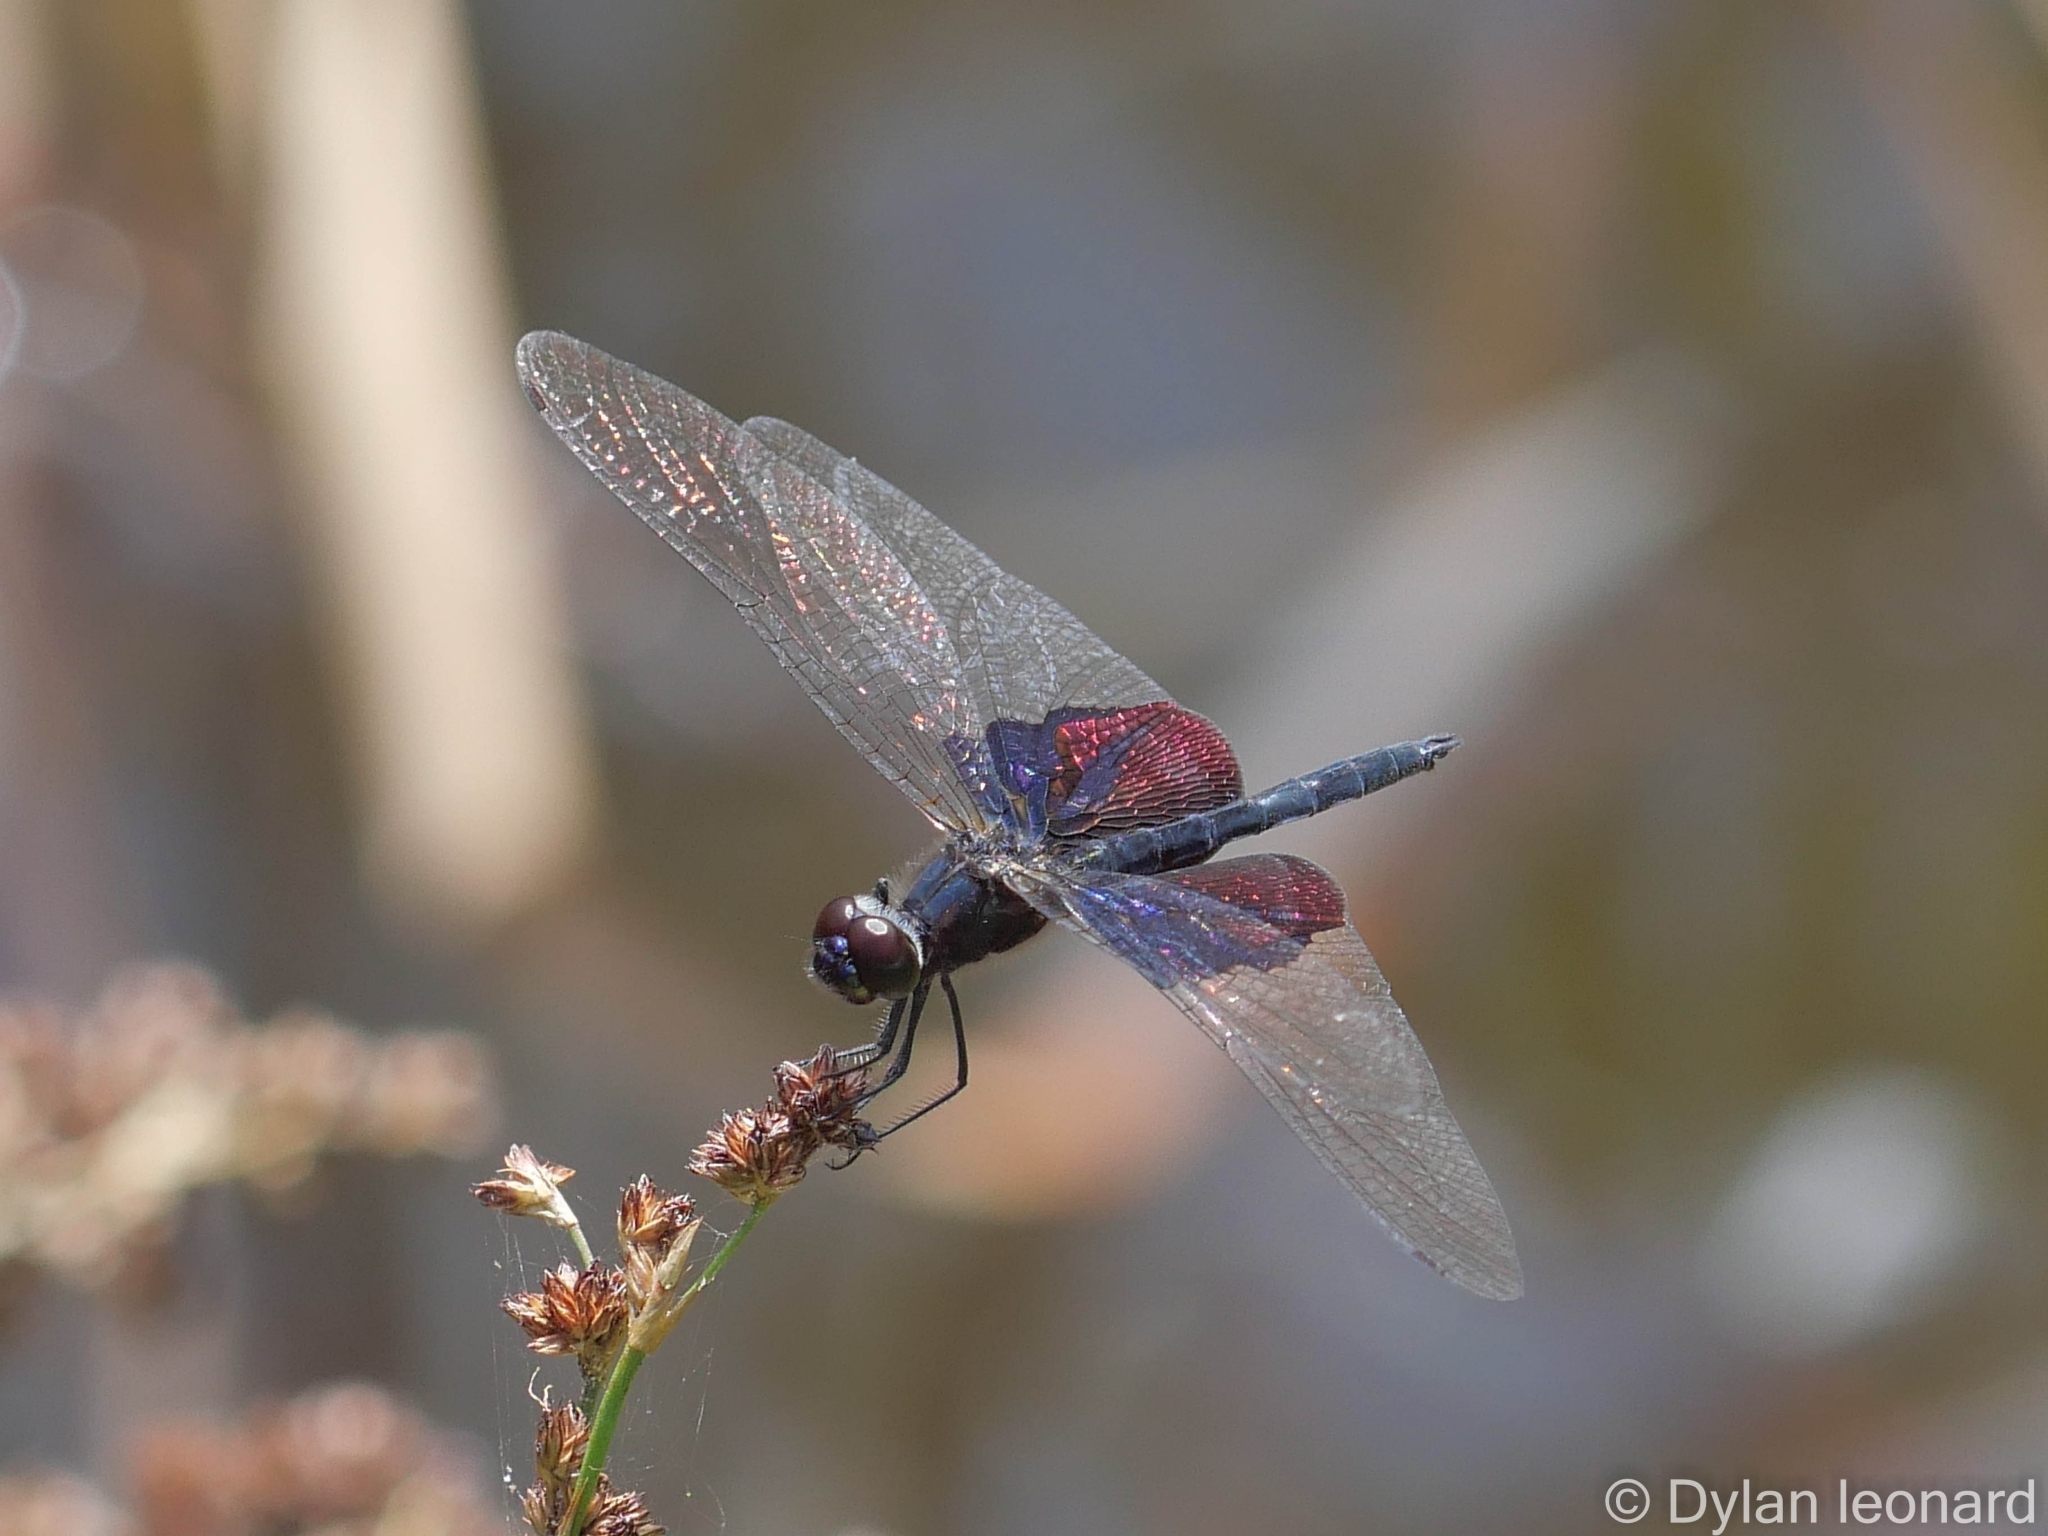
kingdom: Animalia
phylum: Arthropoda
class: Insecta
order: Odonata
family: Libellulidae
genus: Rhyothemis
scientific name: Rhyothemis semihyalina
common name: Phantom flutterer
